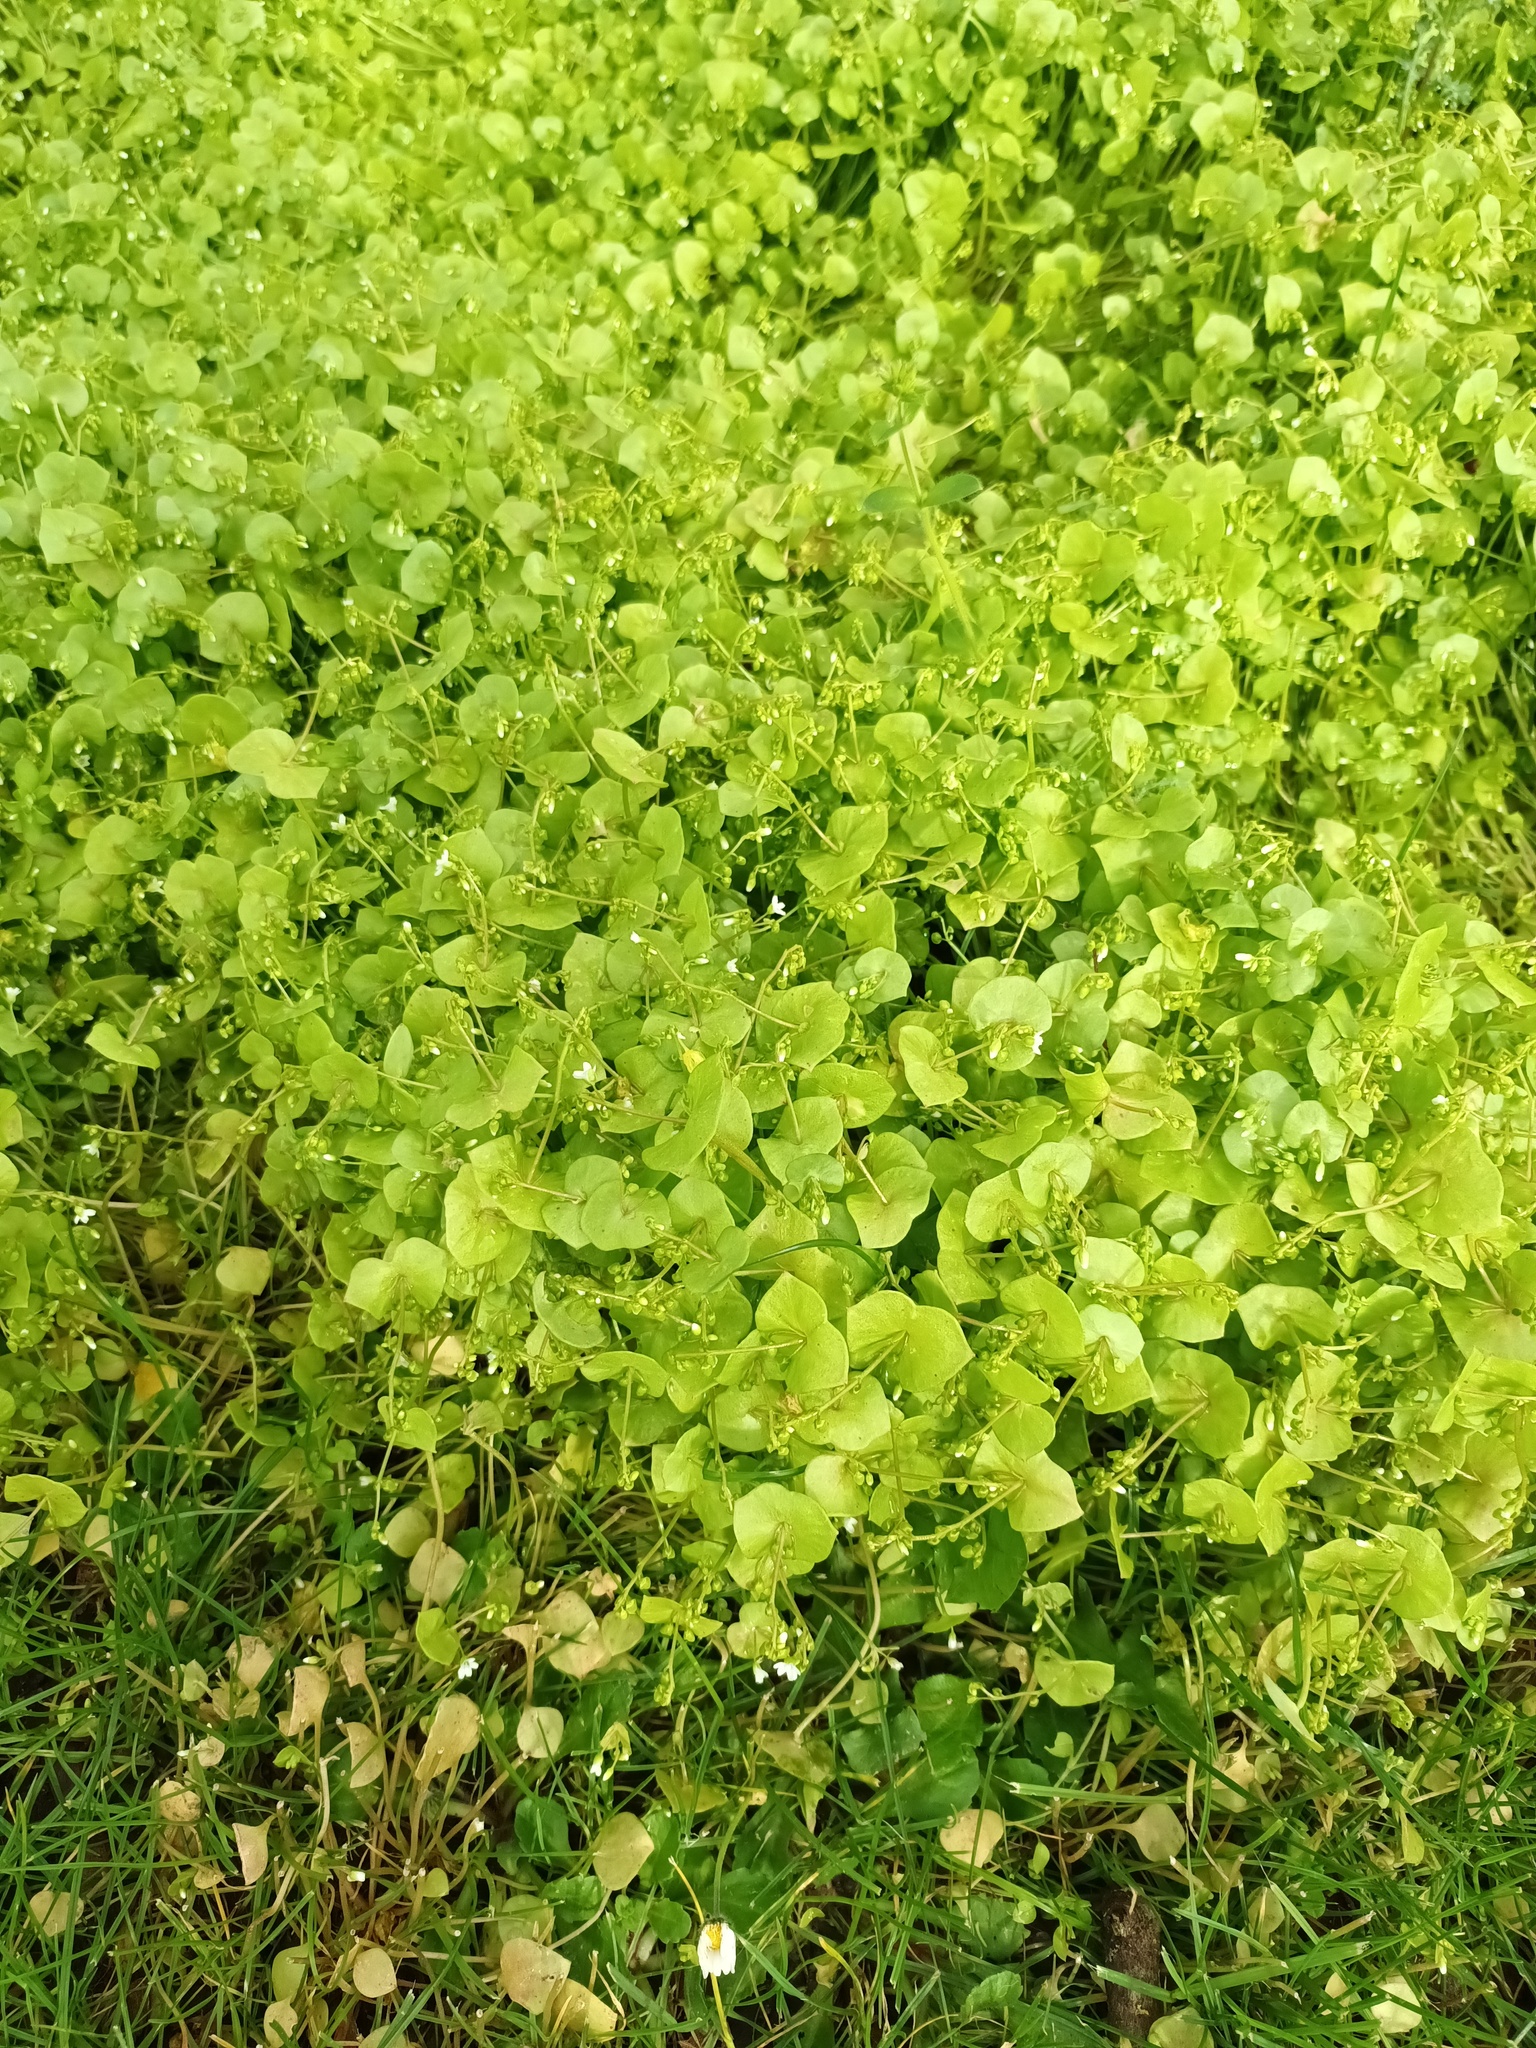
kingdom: Plantae
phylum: Tracheophyta
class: Magnoliopsida
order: Caryophyllales
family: Montiaceae
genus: Claytonia
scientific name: Claytonia perfoliata
